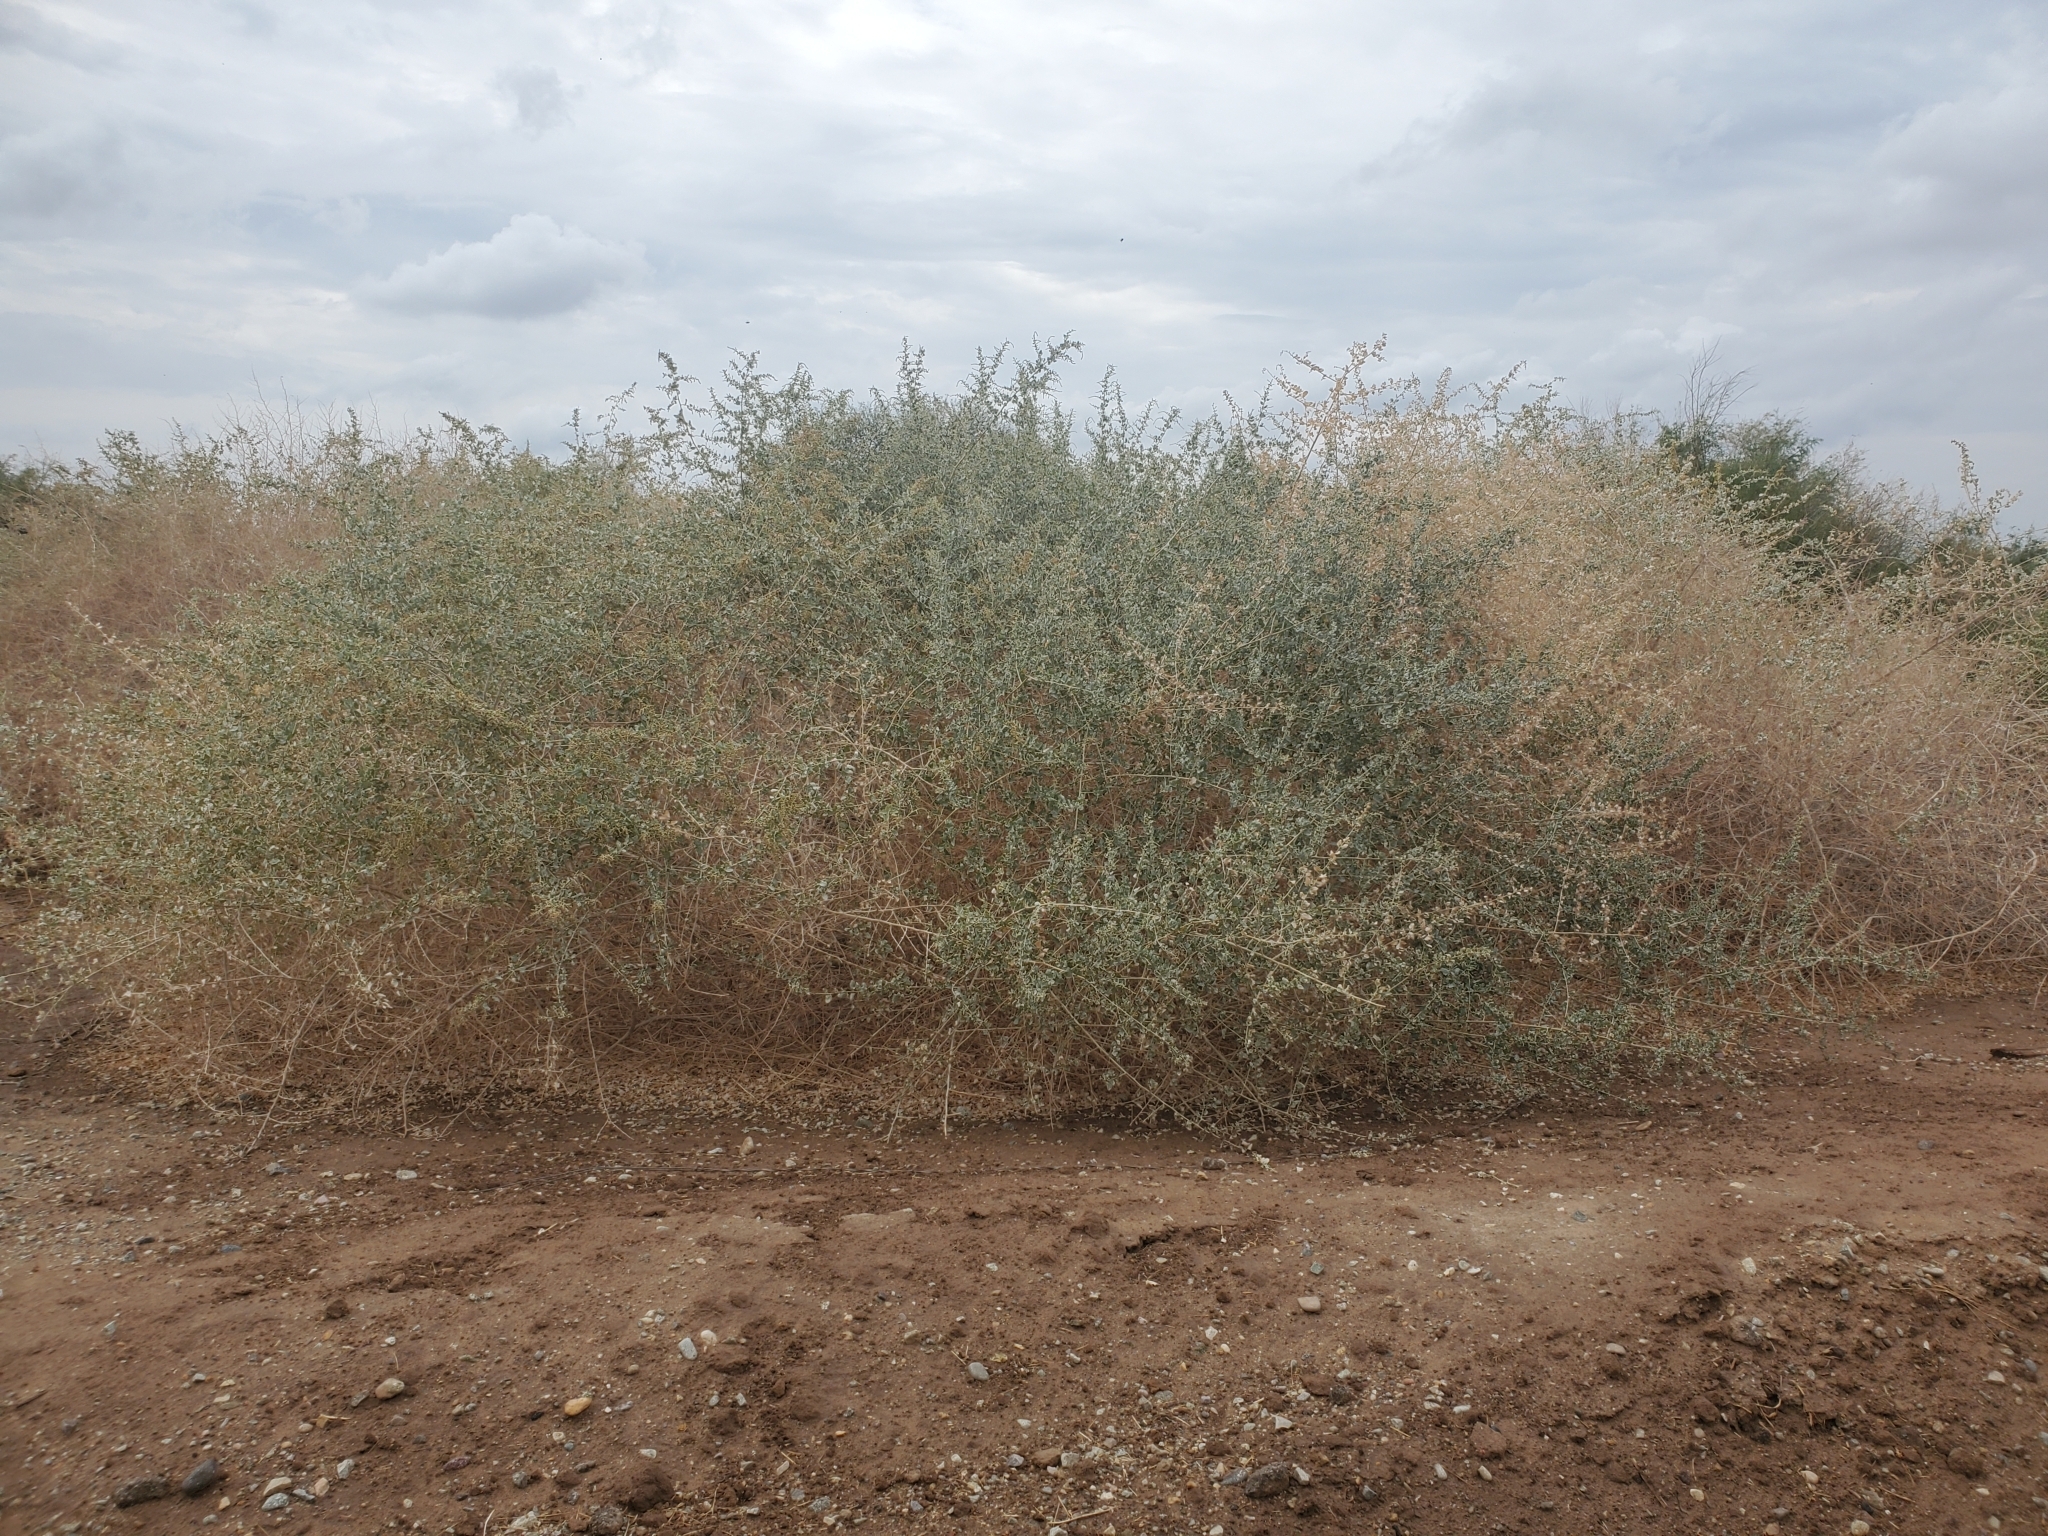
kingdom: Plantae
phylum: Tracheophyta
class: Magnoliopsida
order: Caryophyllales
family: Amaranthaceae
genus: Atriplex
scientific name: Atriplex lentiformis
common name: Big saltbush
